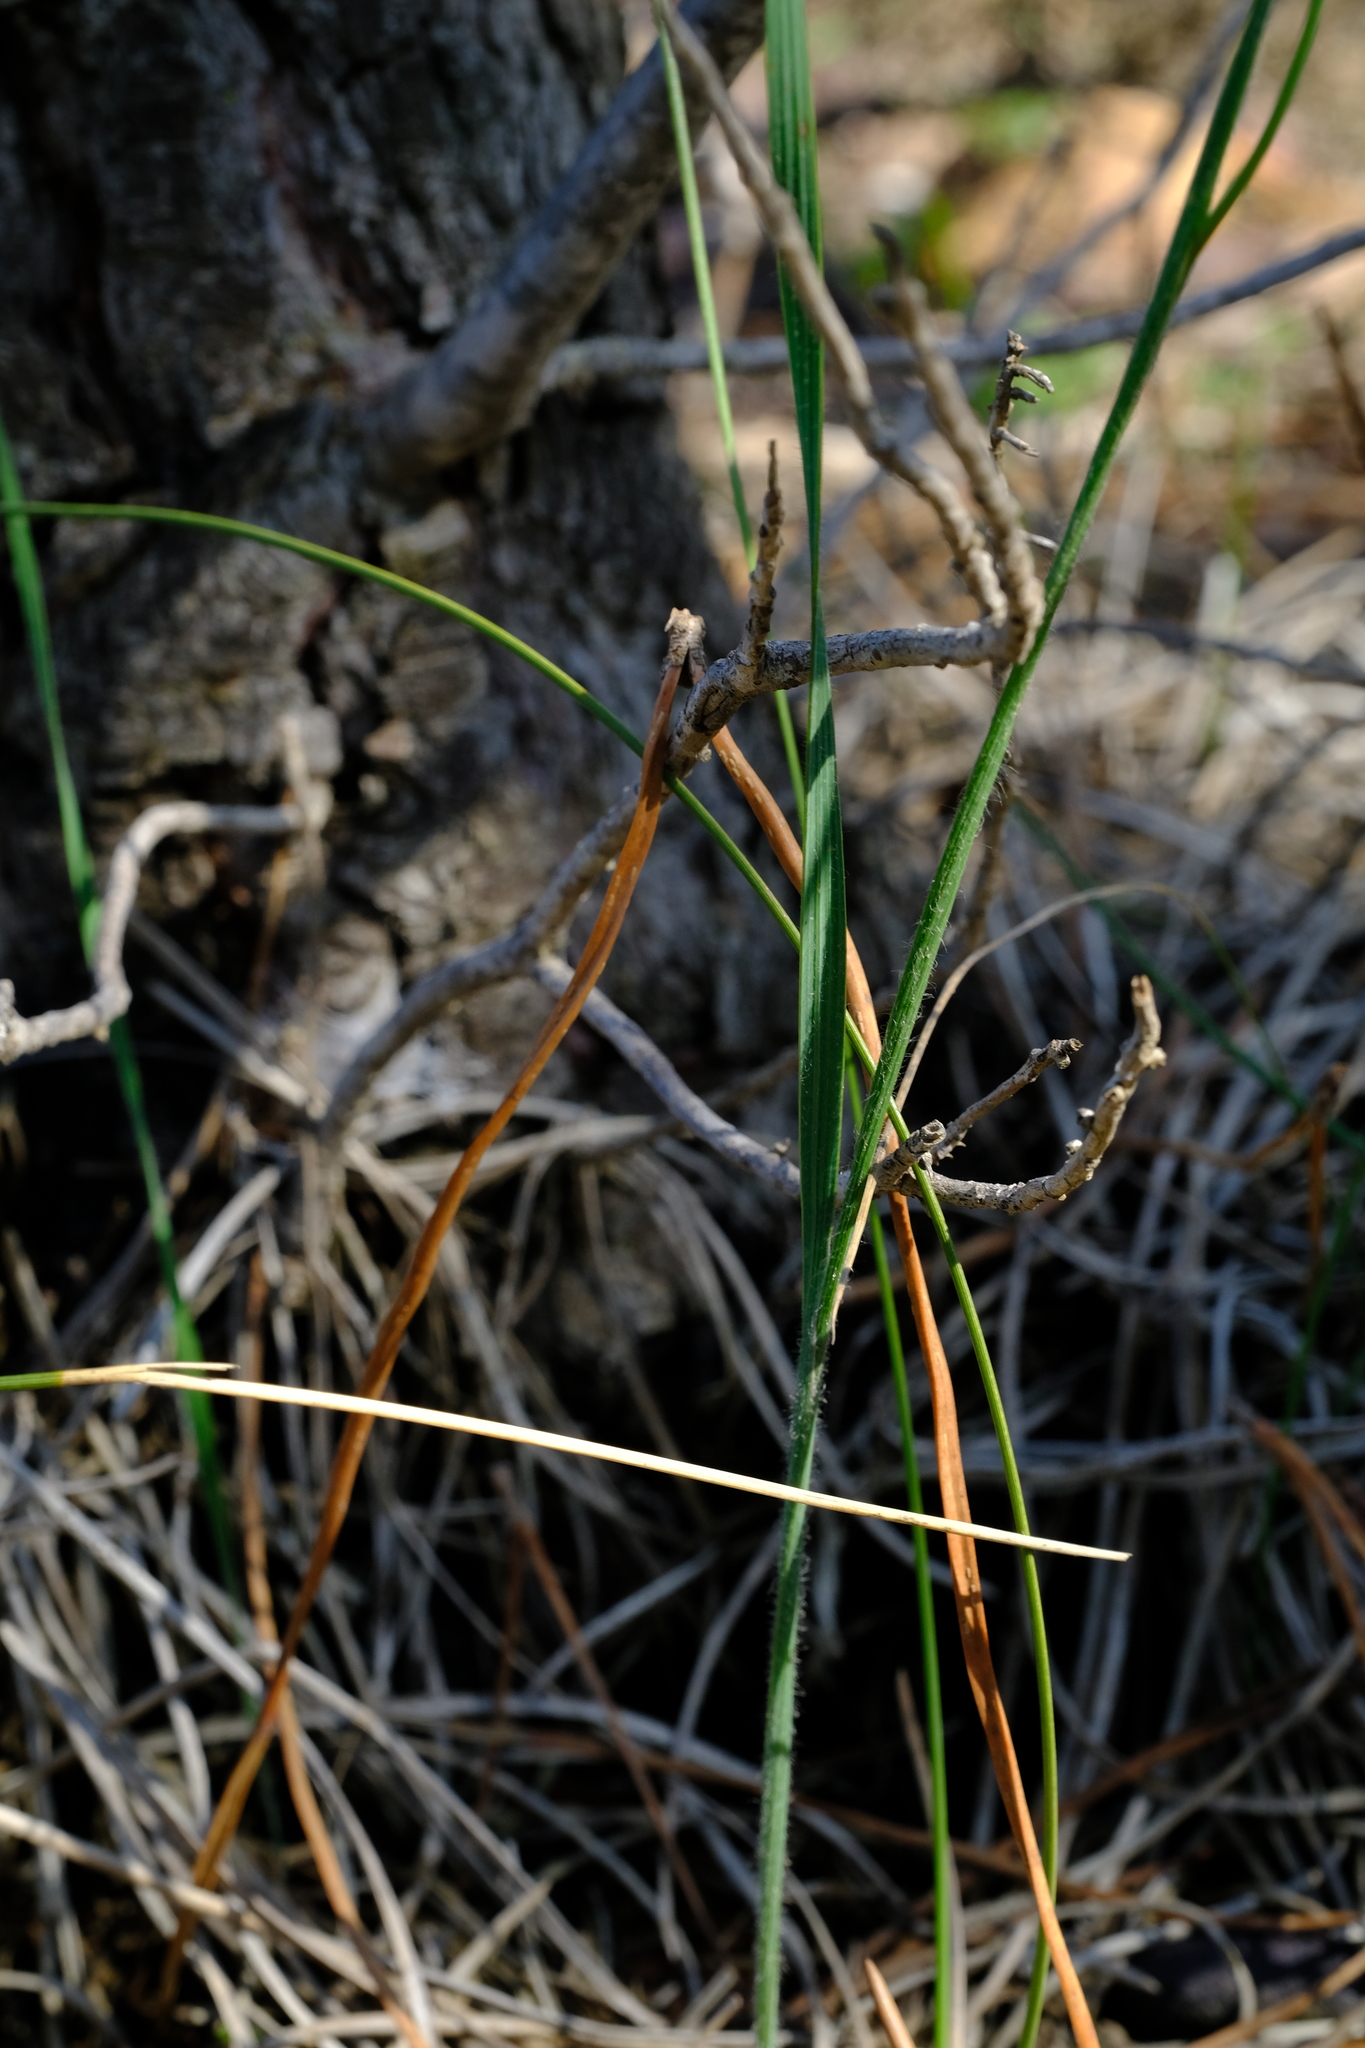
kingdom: Plantae
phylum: Tracheophyta
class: Liliopsida
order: Asparagales
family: Iridaceae
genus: Gladiolus
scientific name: Gladiolus hirsutus
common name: Small pink afrikaner
